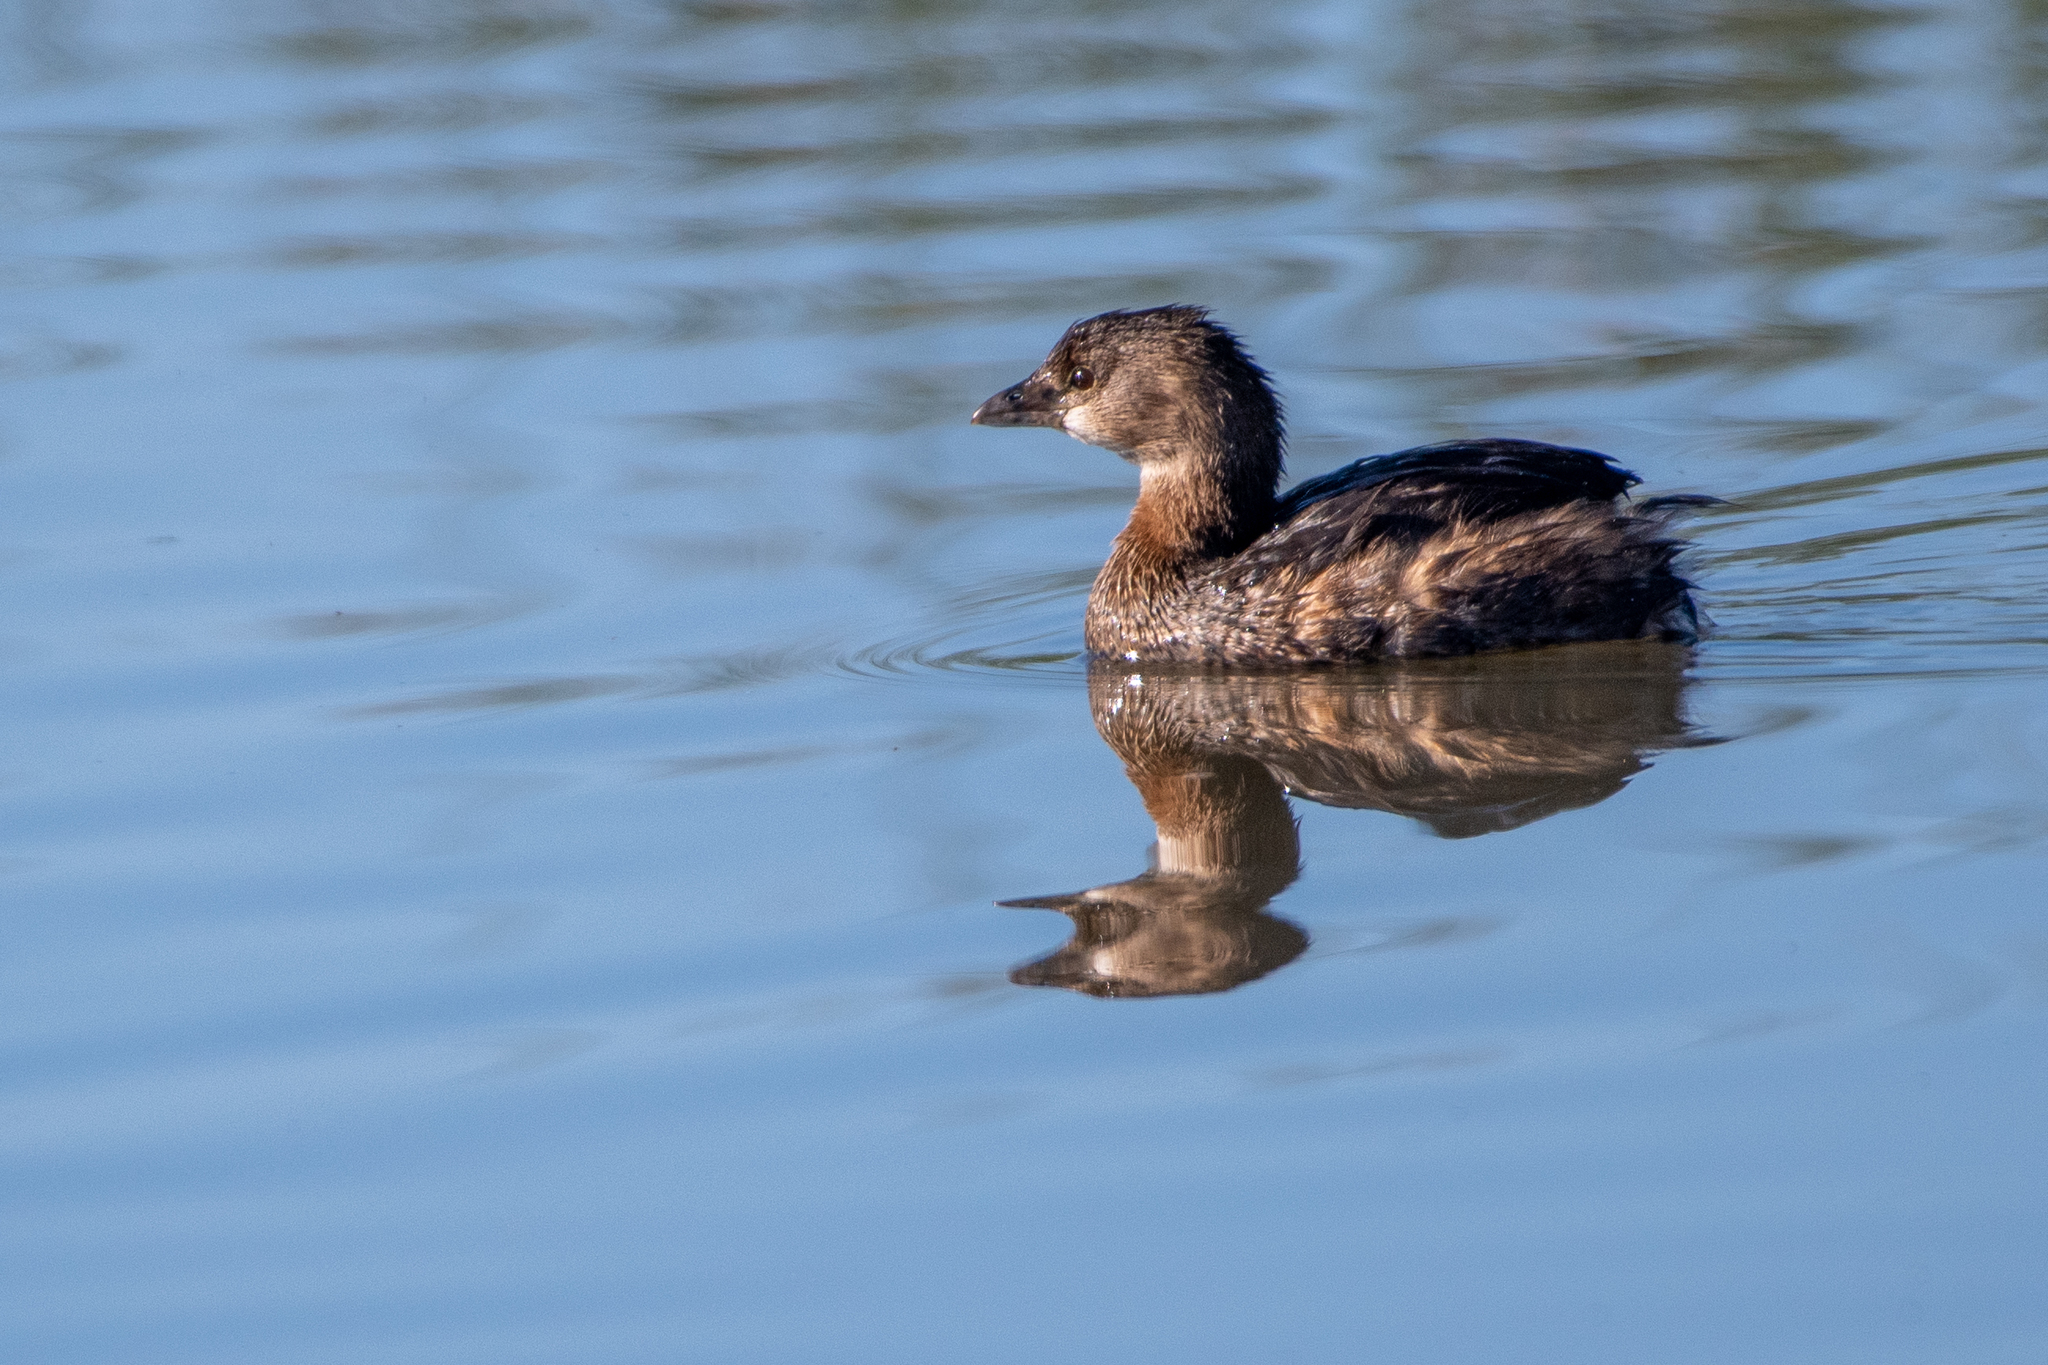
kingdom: Animalia
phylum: Chordata
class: Aves
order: Podicipediformes
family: Podicipedidae
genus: Podilymbus
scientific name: Podilymbus podiceps
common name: Pied-billed grebe
